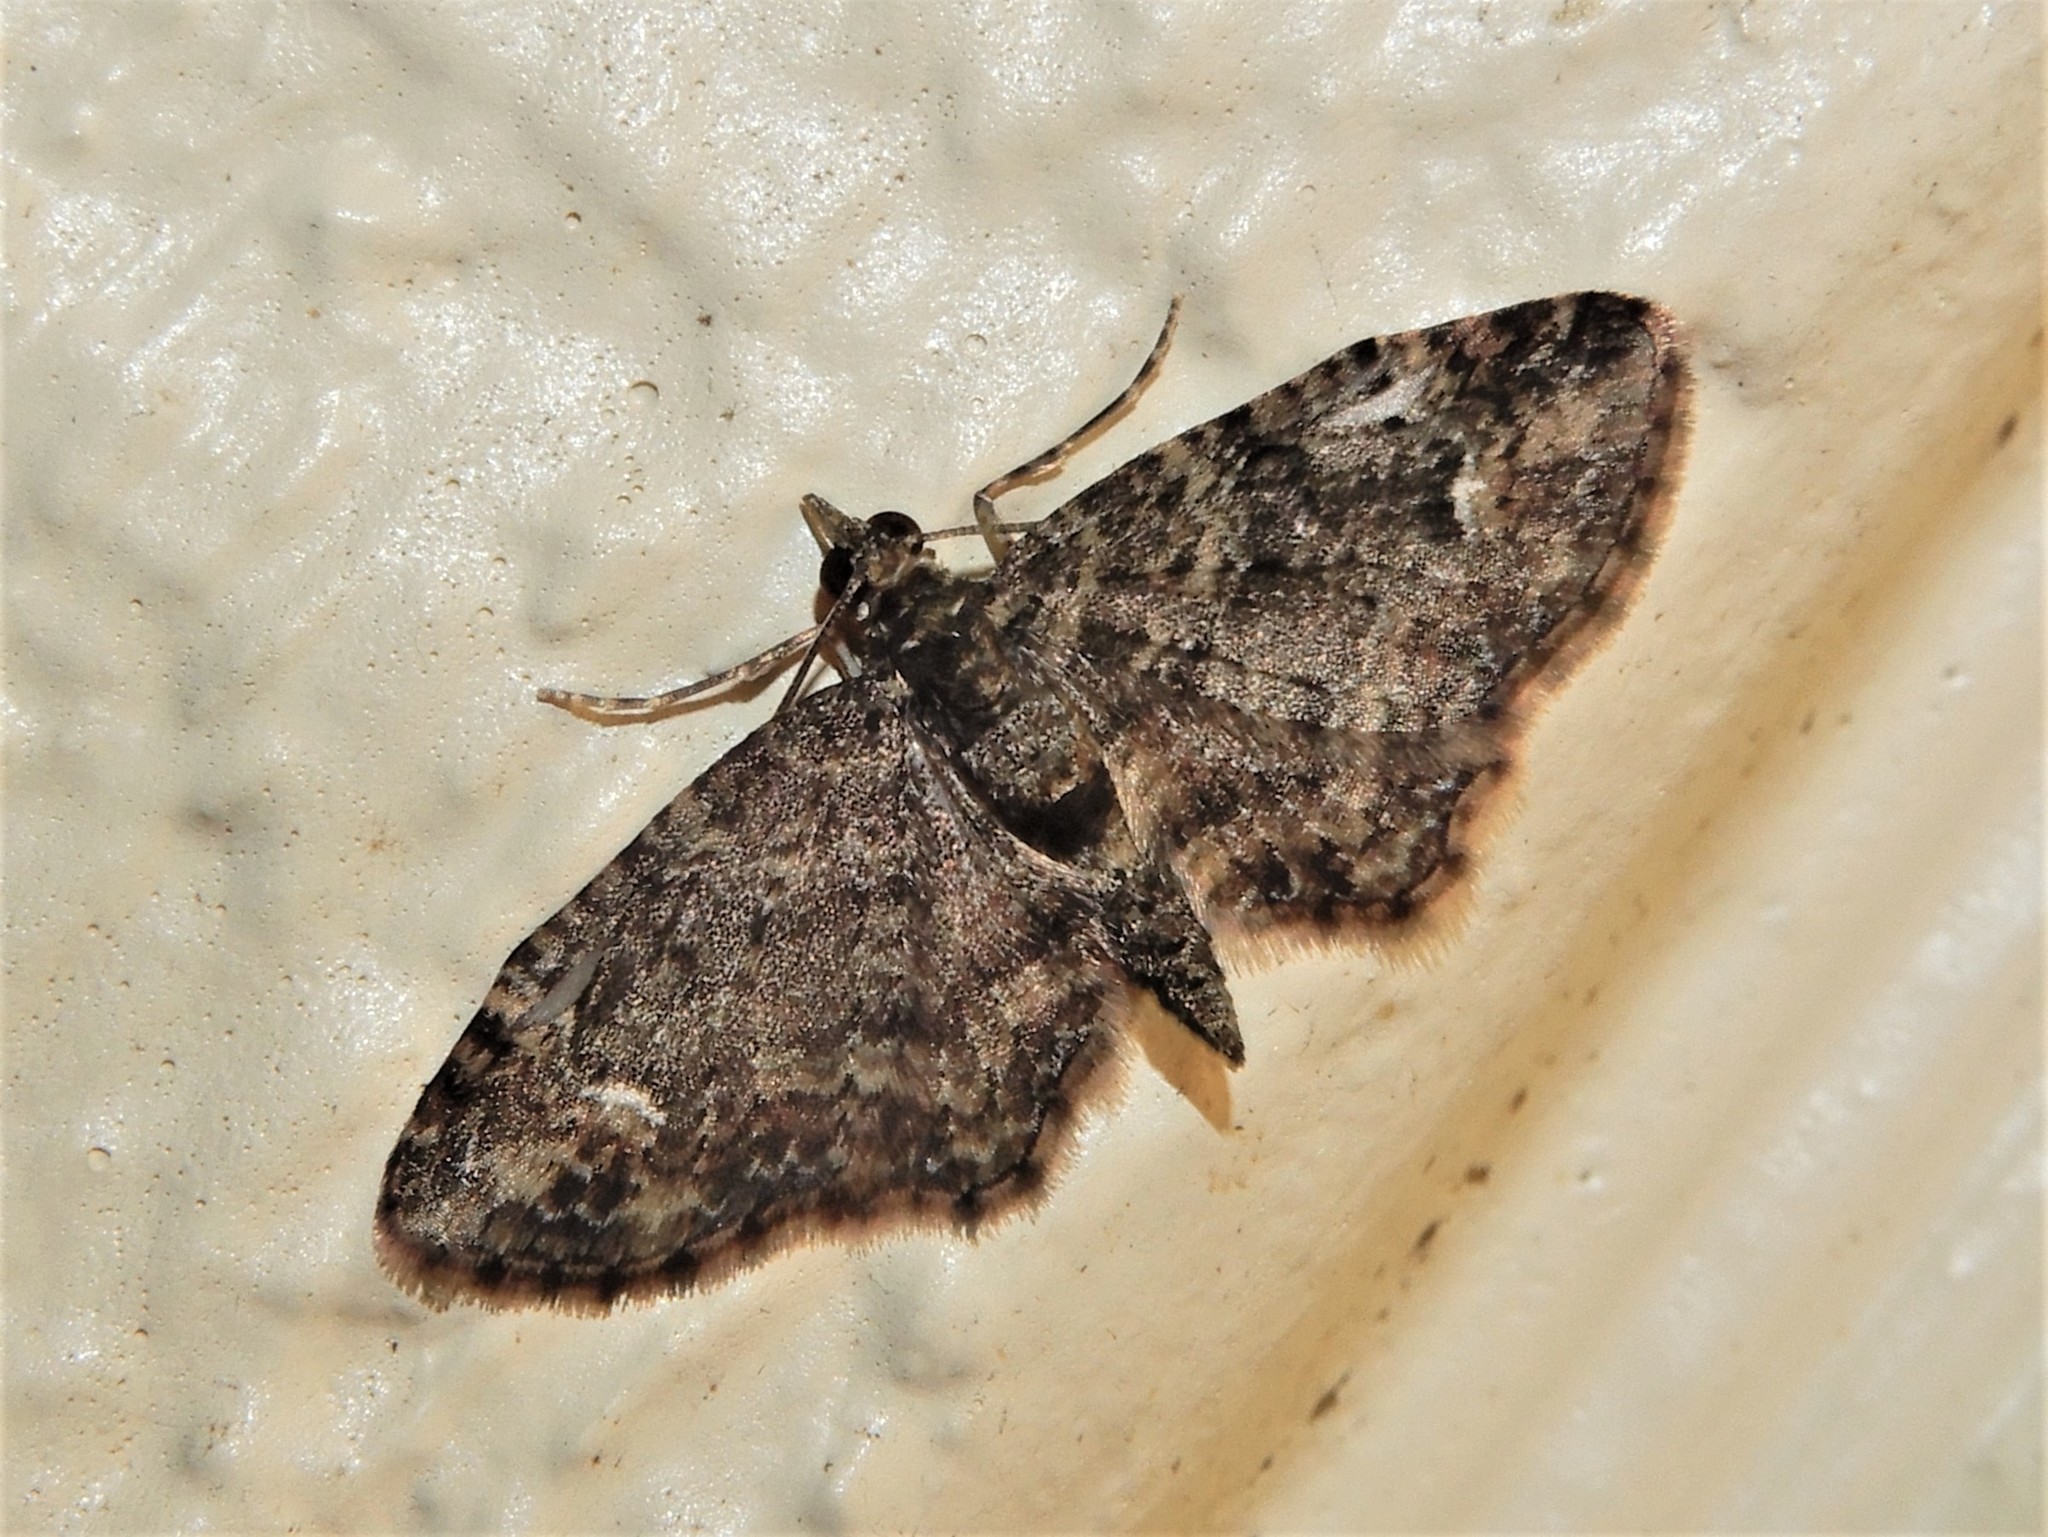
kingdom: Animalia
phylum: Arthropoda
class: Insecta
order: Lepidoptera
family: Geometridae
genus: Pasiphilodes
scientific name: Pasiphilodes testulata
